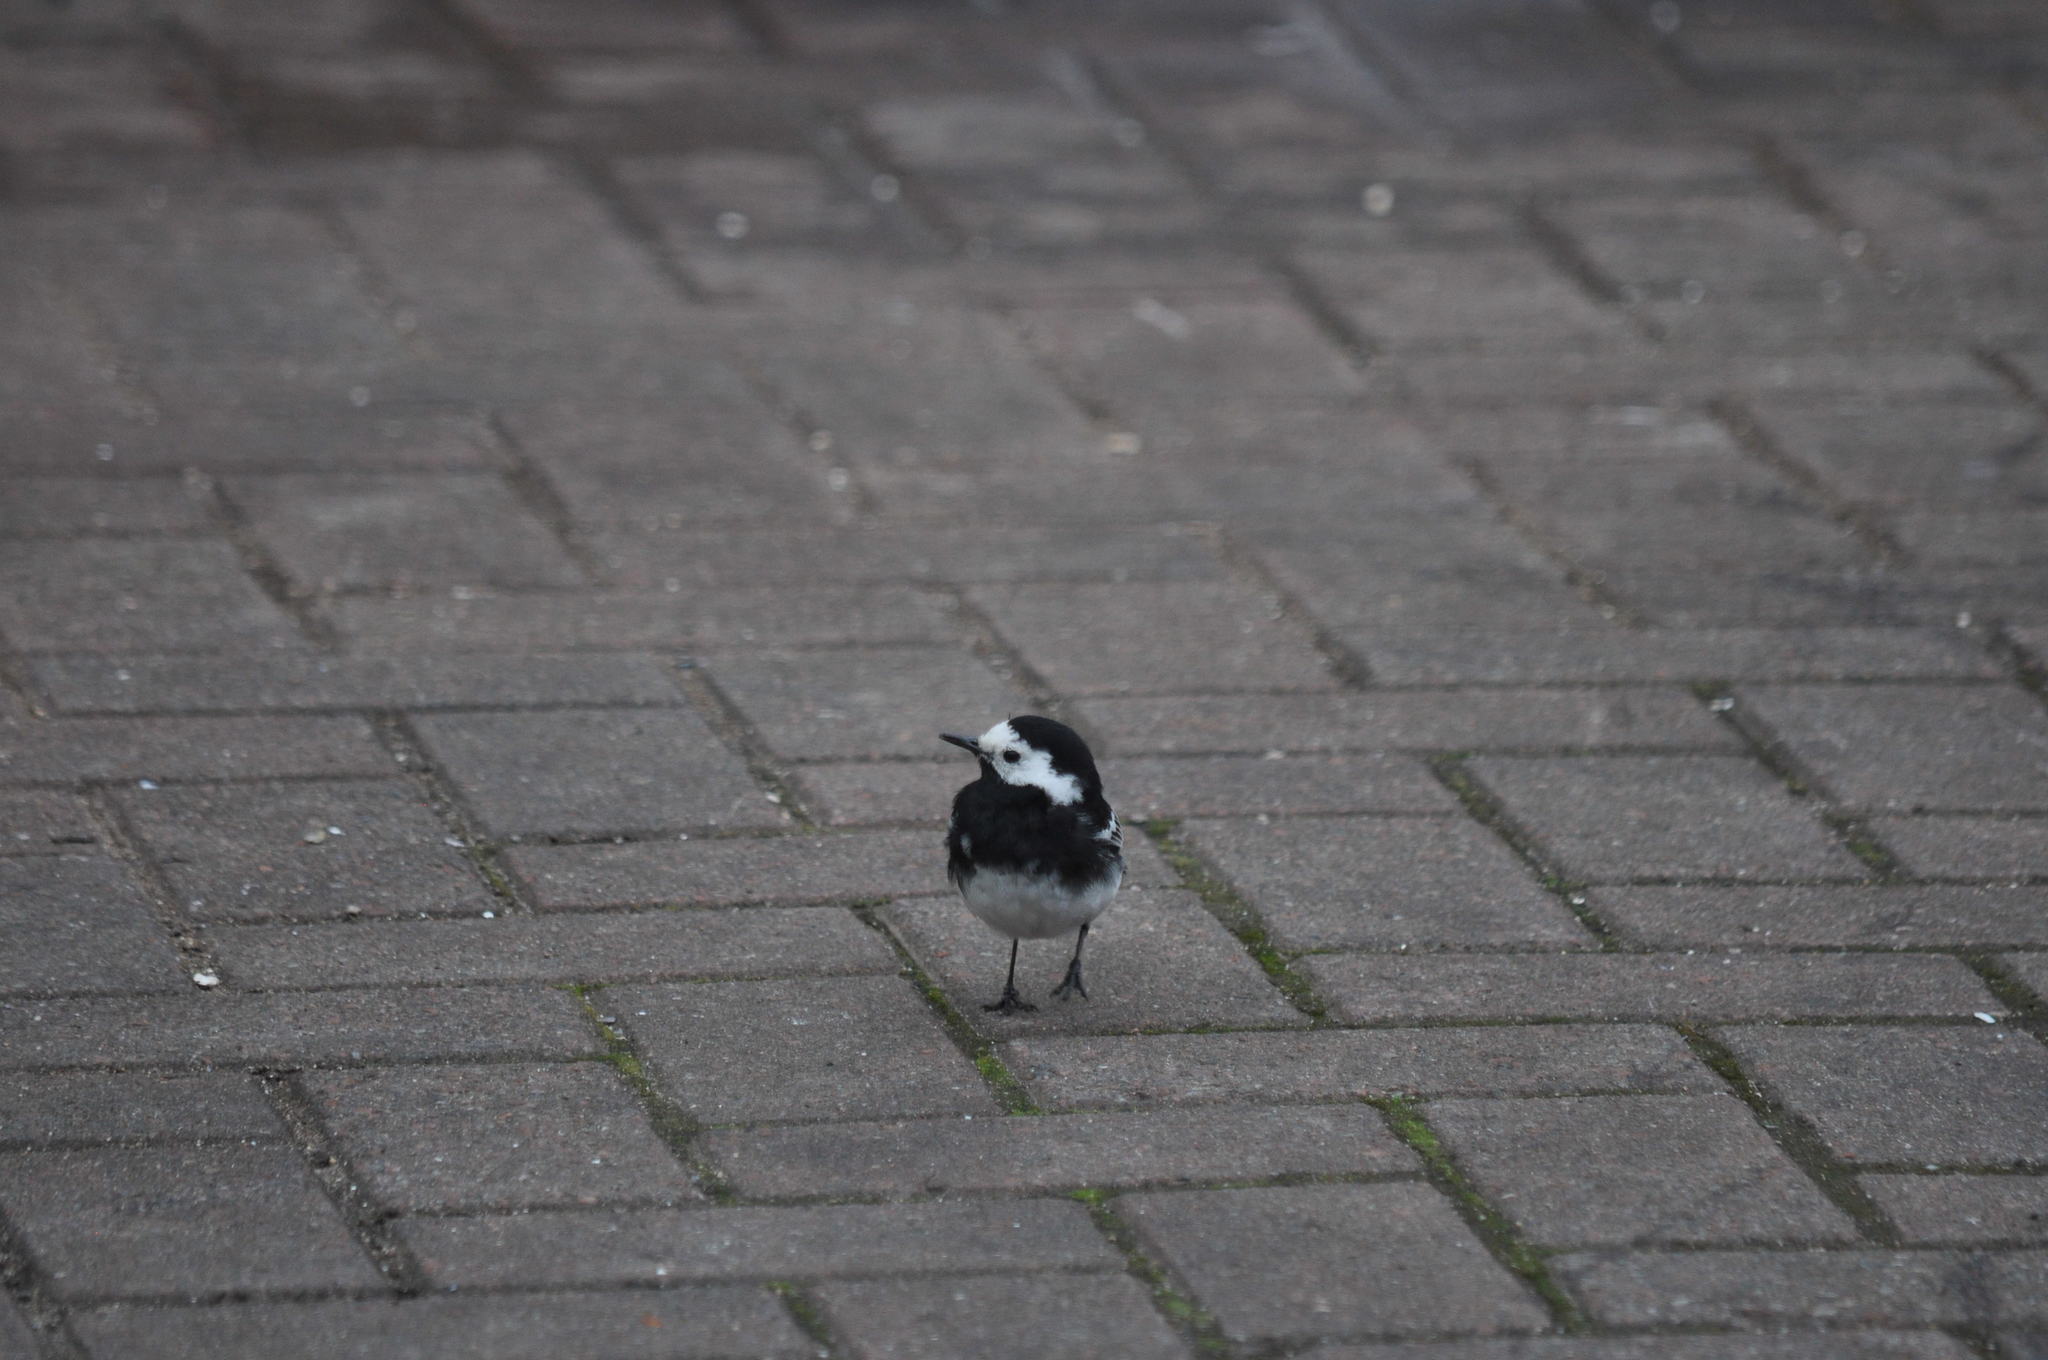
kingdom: Animalia
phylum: Chordata
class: Aves
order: Passeriformes
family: Motacillidae
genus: Motacilla
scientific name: Motacilla alba
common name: White wagtail
